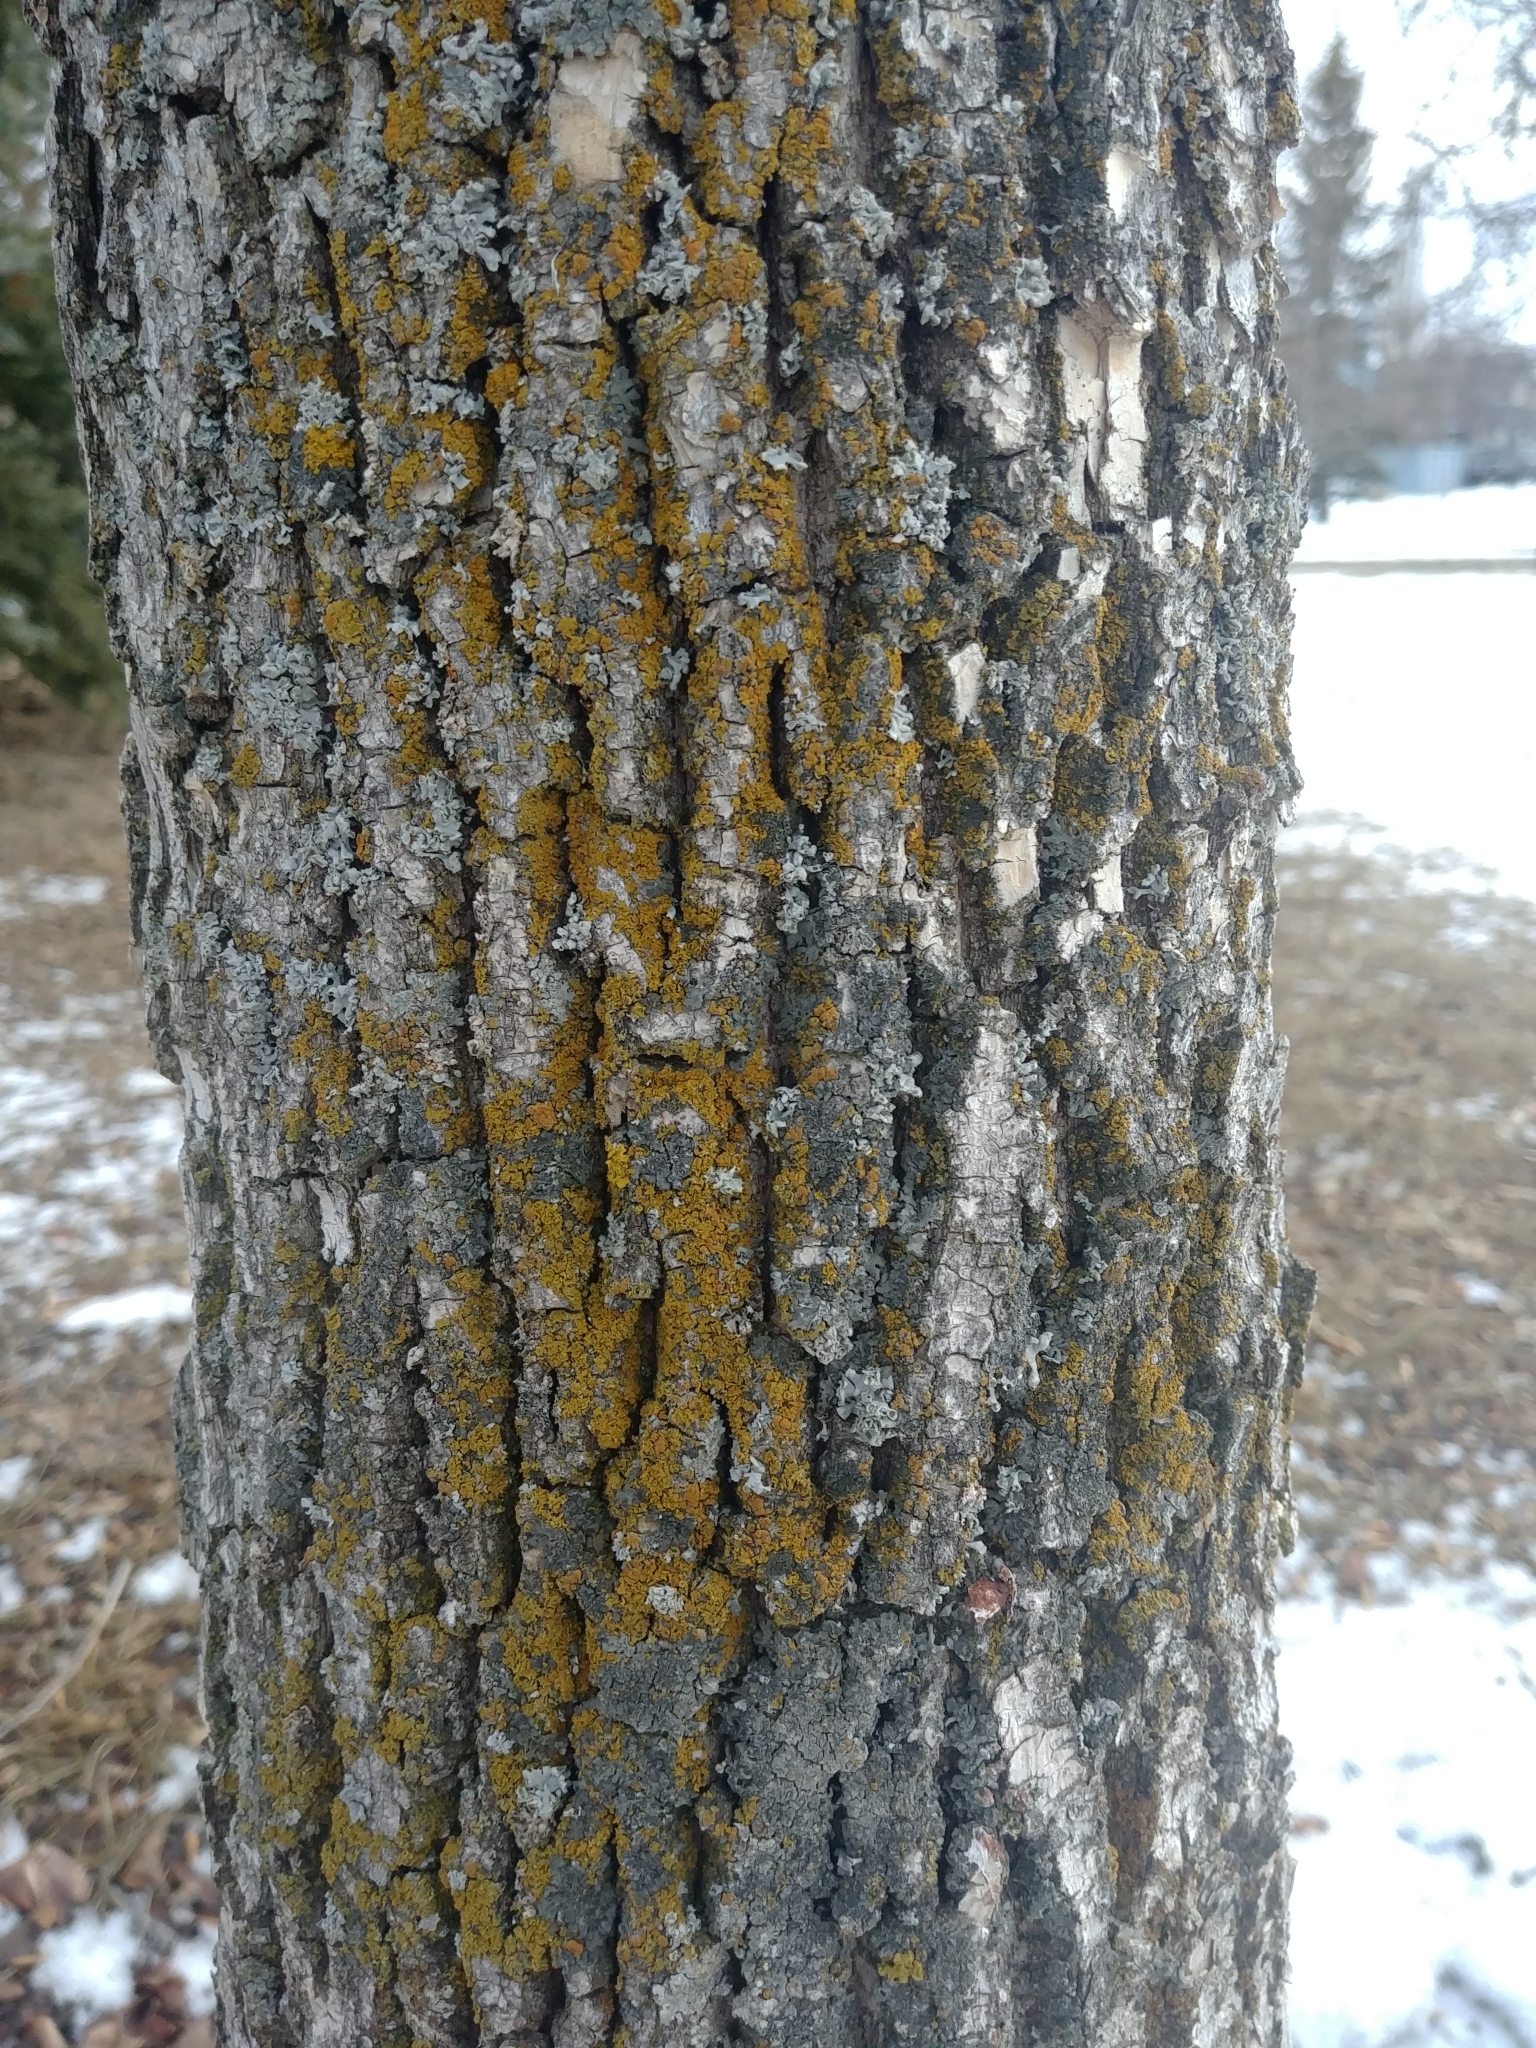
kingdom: Fungi
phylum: Ascomycota
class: Lecanoromycetes
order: Teloschistales
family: Teloschistaceae
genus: Oxneria
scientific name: Oxneria fallax
